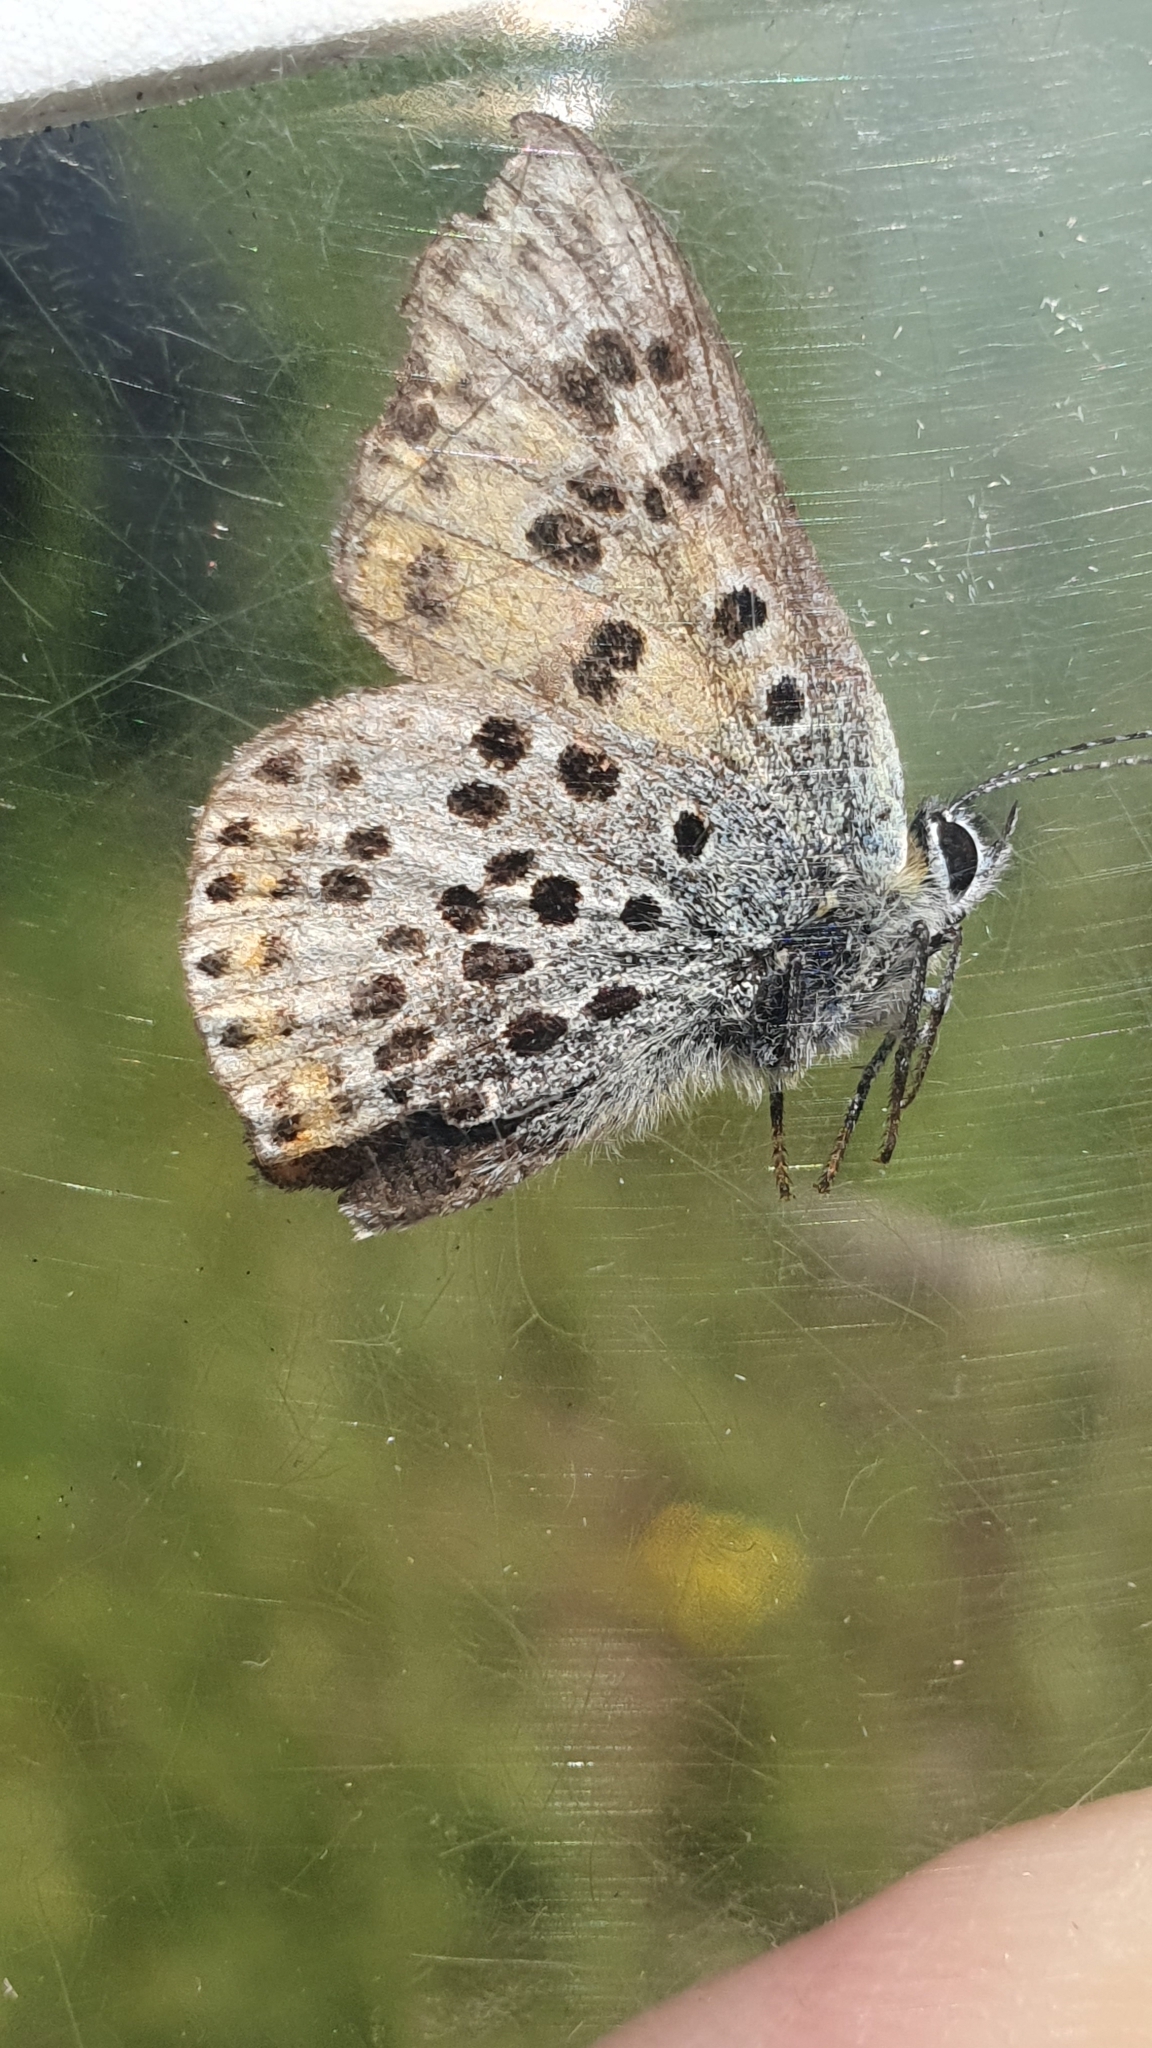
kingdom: Animalia
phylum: Arthropoda
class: Insecta
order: Lepidoptera
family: Lycaenidae
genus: Loweia
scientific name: Loweia tityrus
